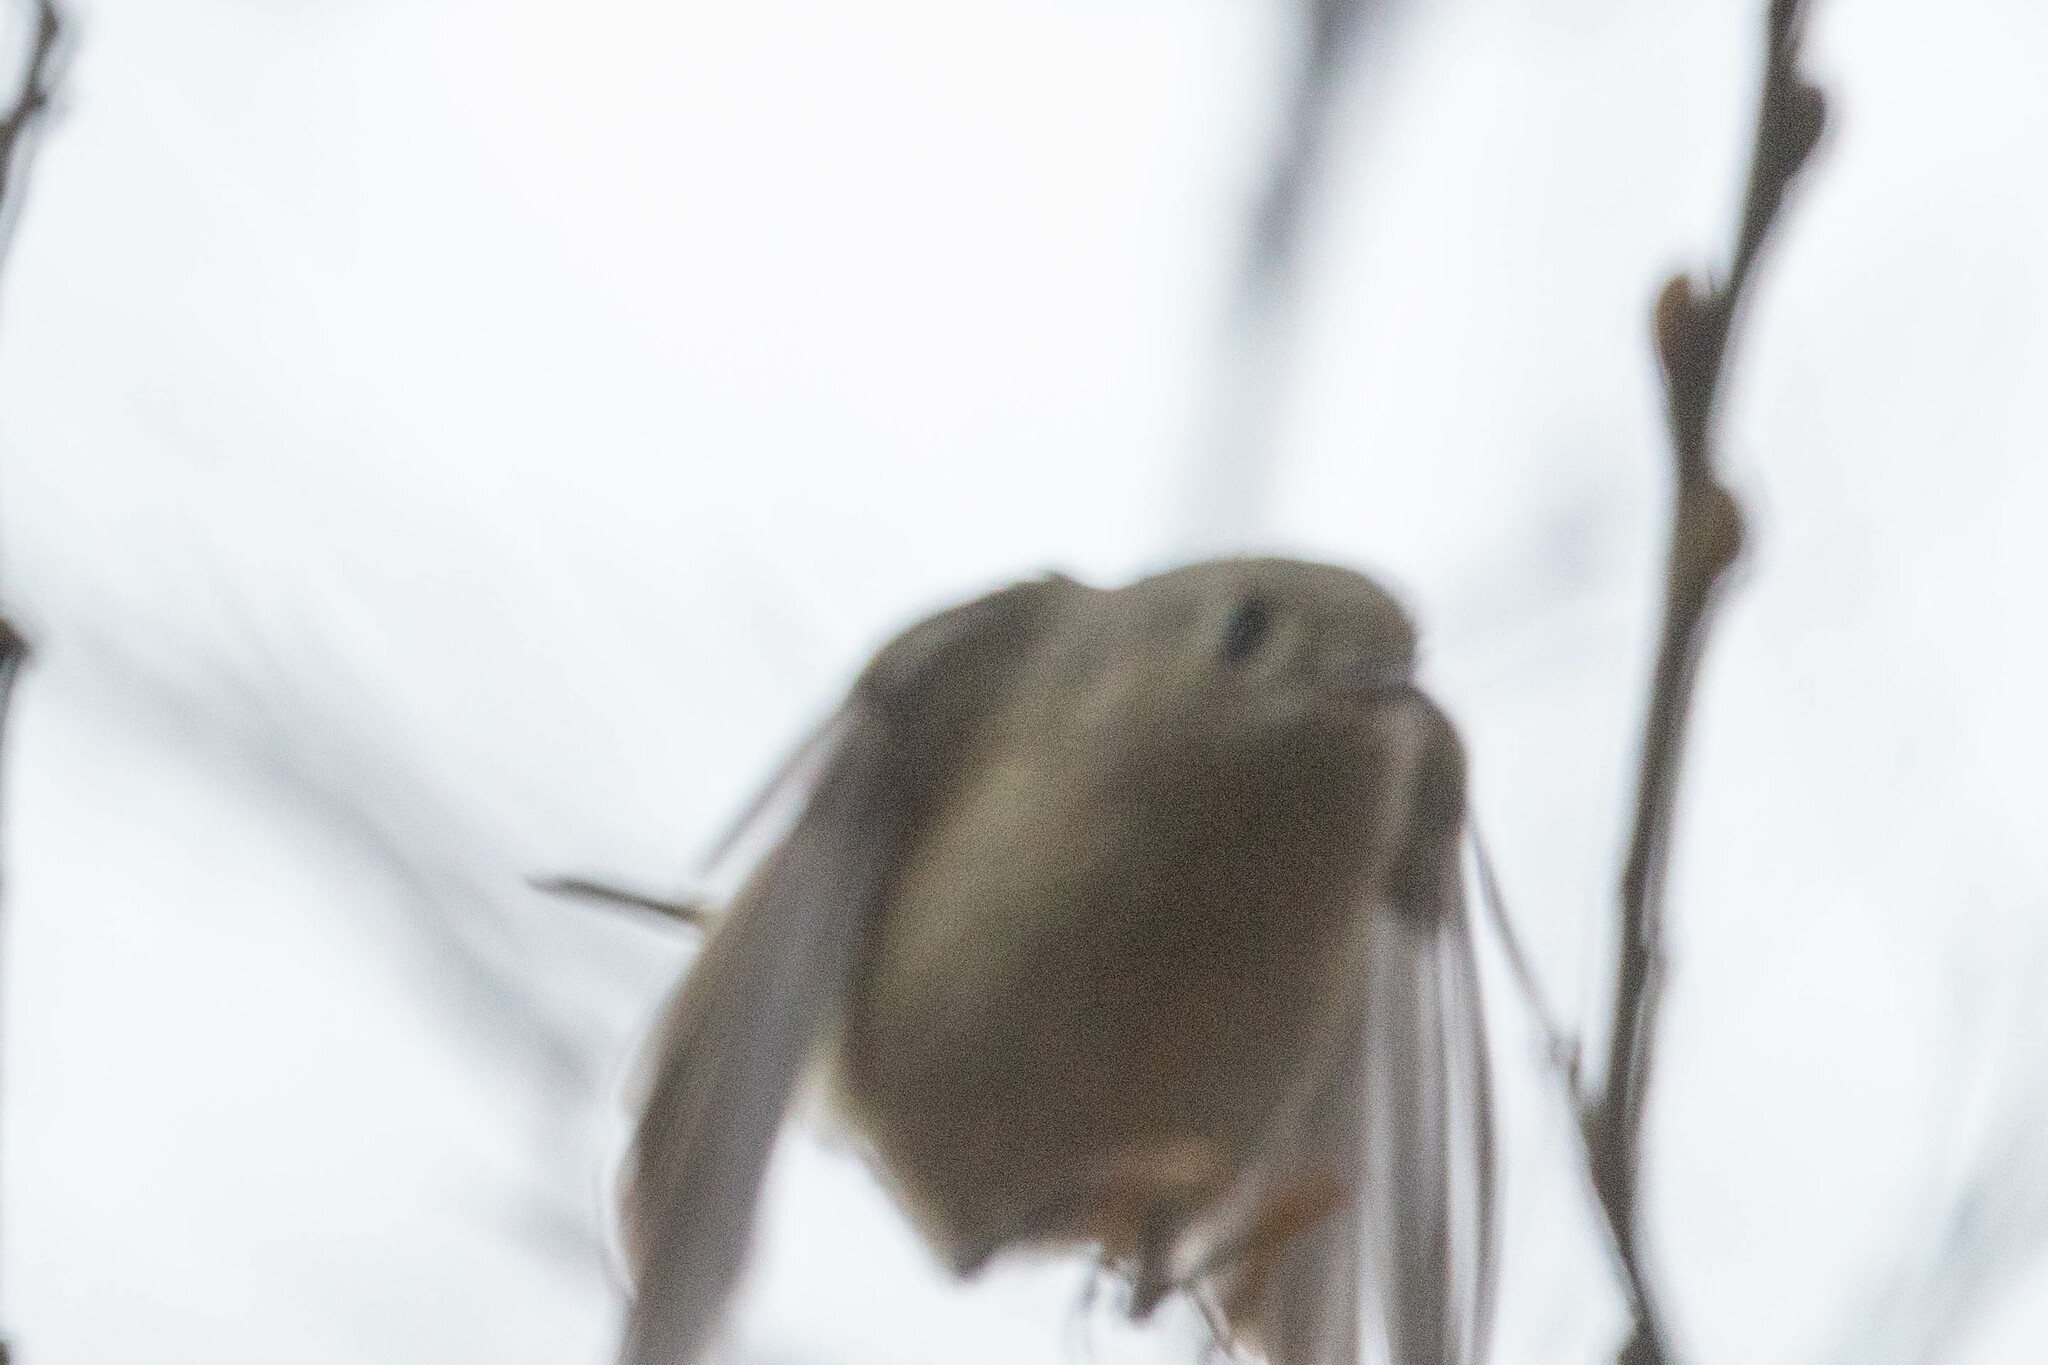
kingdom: Animalia
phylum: Chordata
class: Aves
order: Passeriformes
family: Regulidae
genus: Regulus
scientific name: Regulus calendula
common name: Ruby-crowned kinglet
